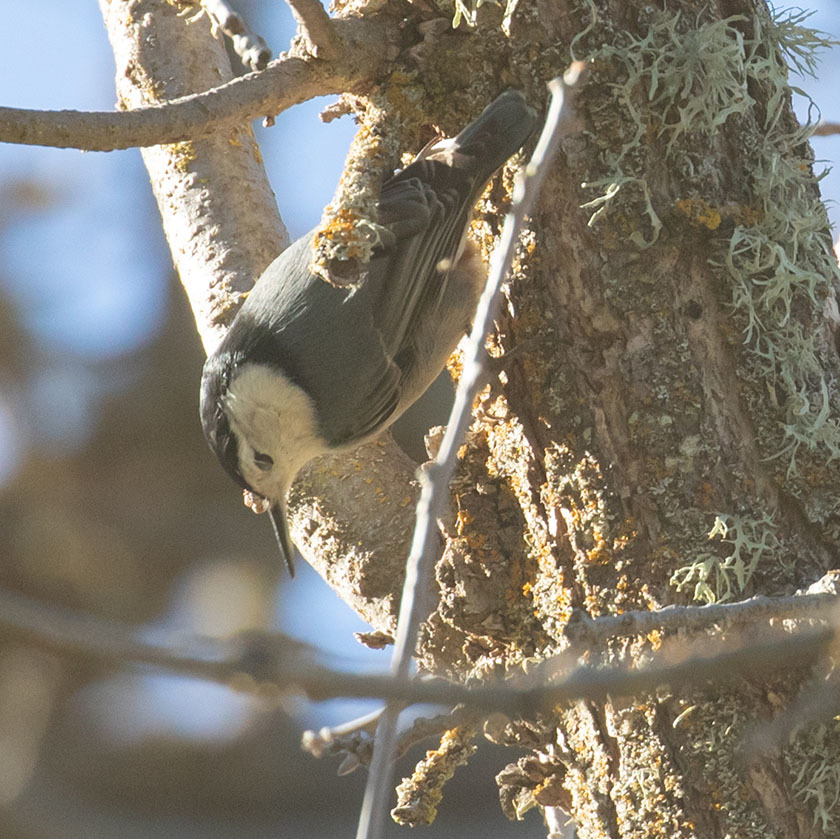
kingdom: Animalia
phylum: Chordata
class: Aves
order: Passeriformes
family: Sittidae
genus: Sitta
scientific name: Sitta carolinensis
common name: White-breasted nuthatch
